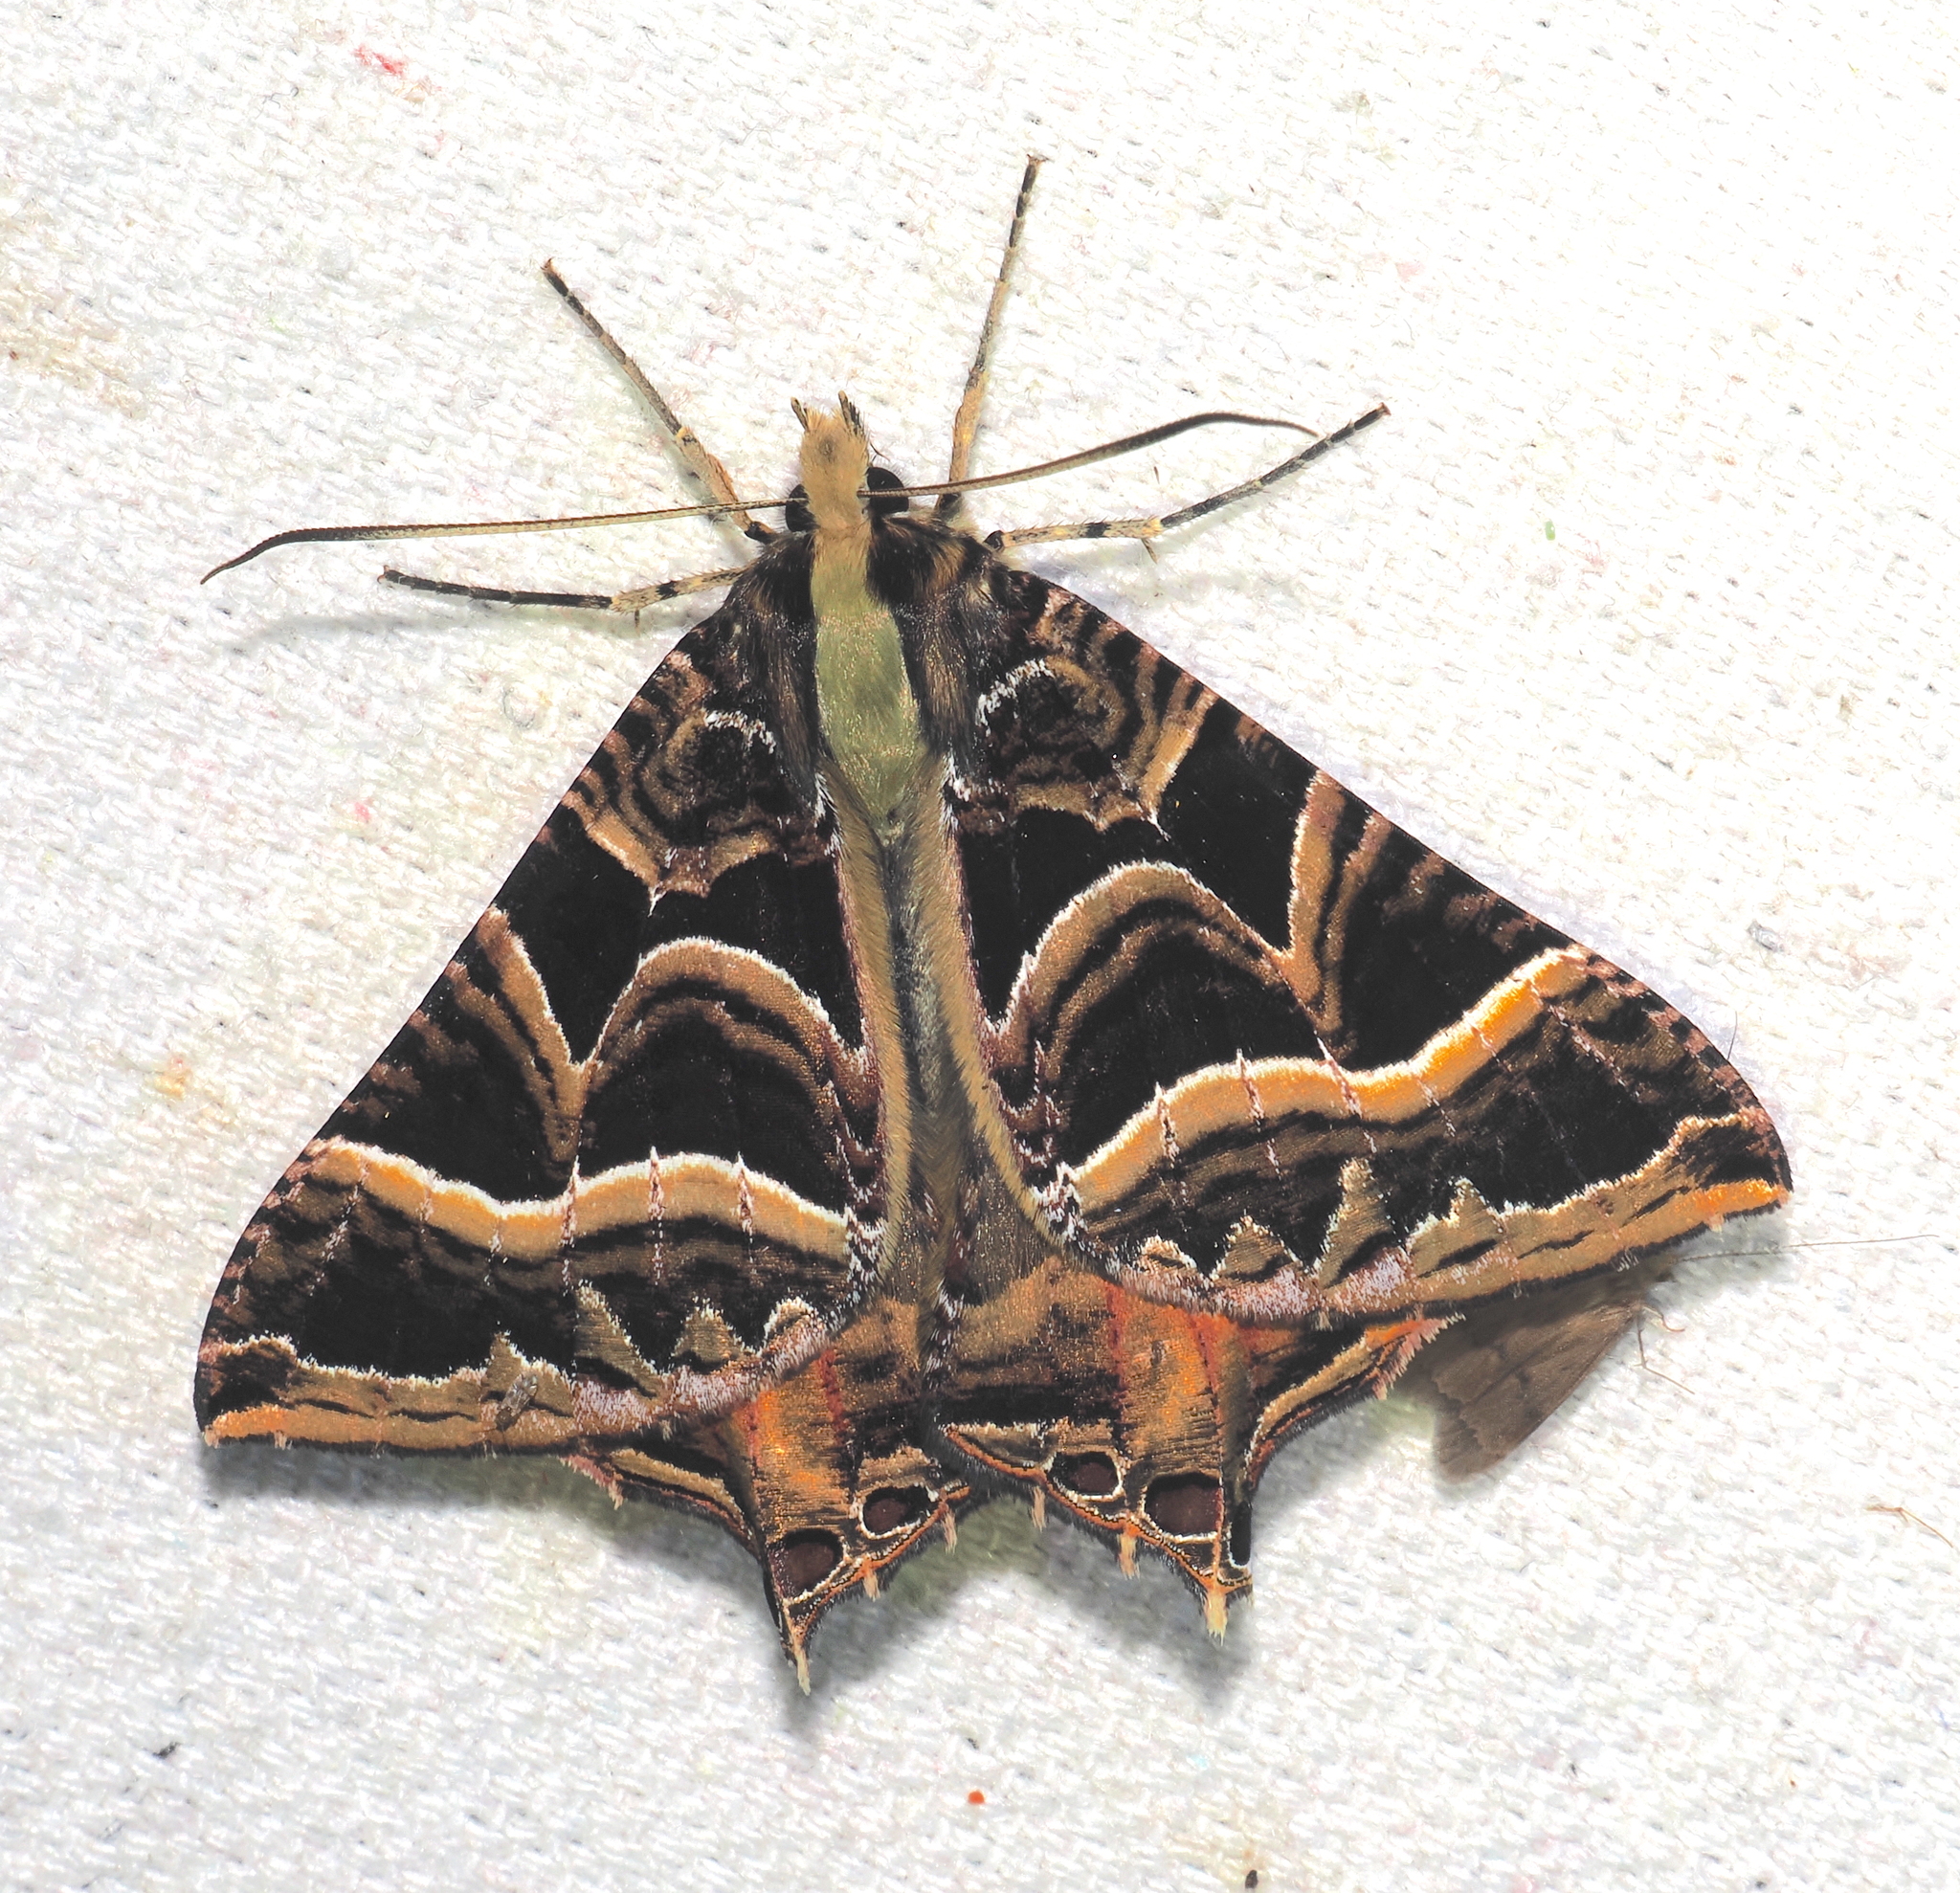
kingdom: Animalia
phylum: Arthropoda
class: Insecta
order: Lepidoptera
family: Sematuridae
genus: Coronidia
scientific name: Coronidia
